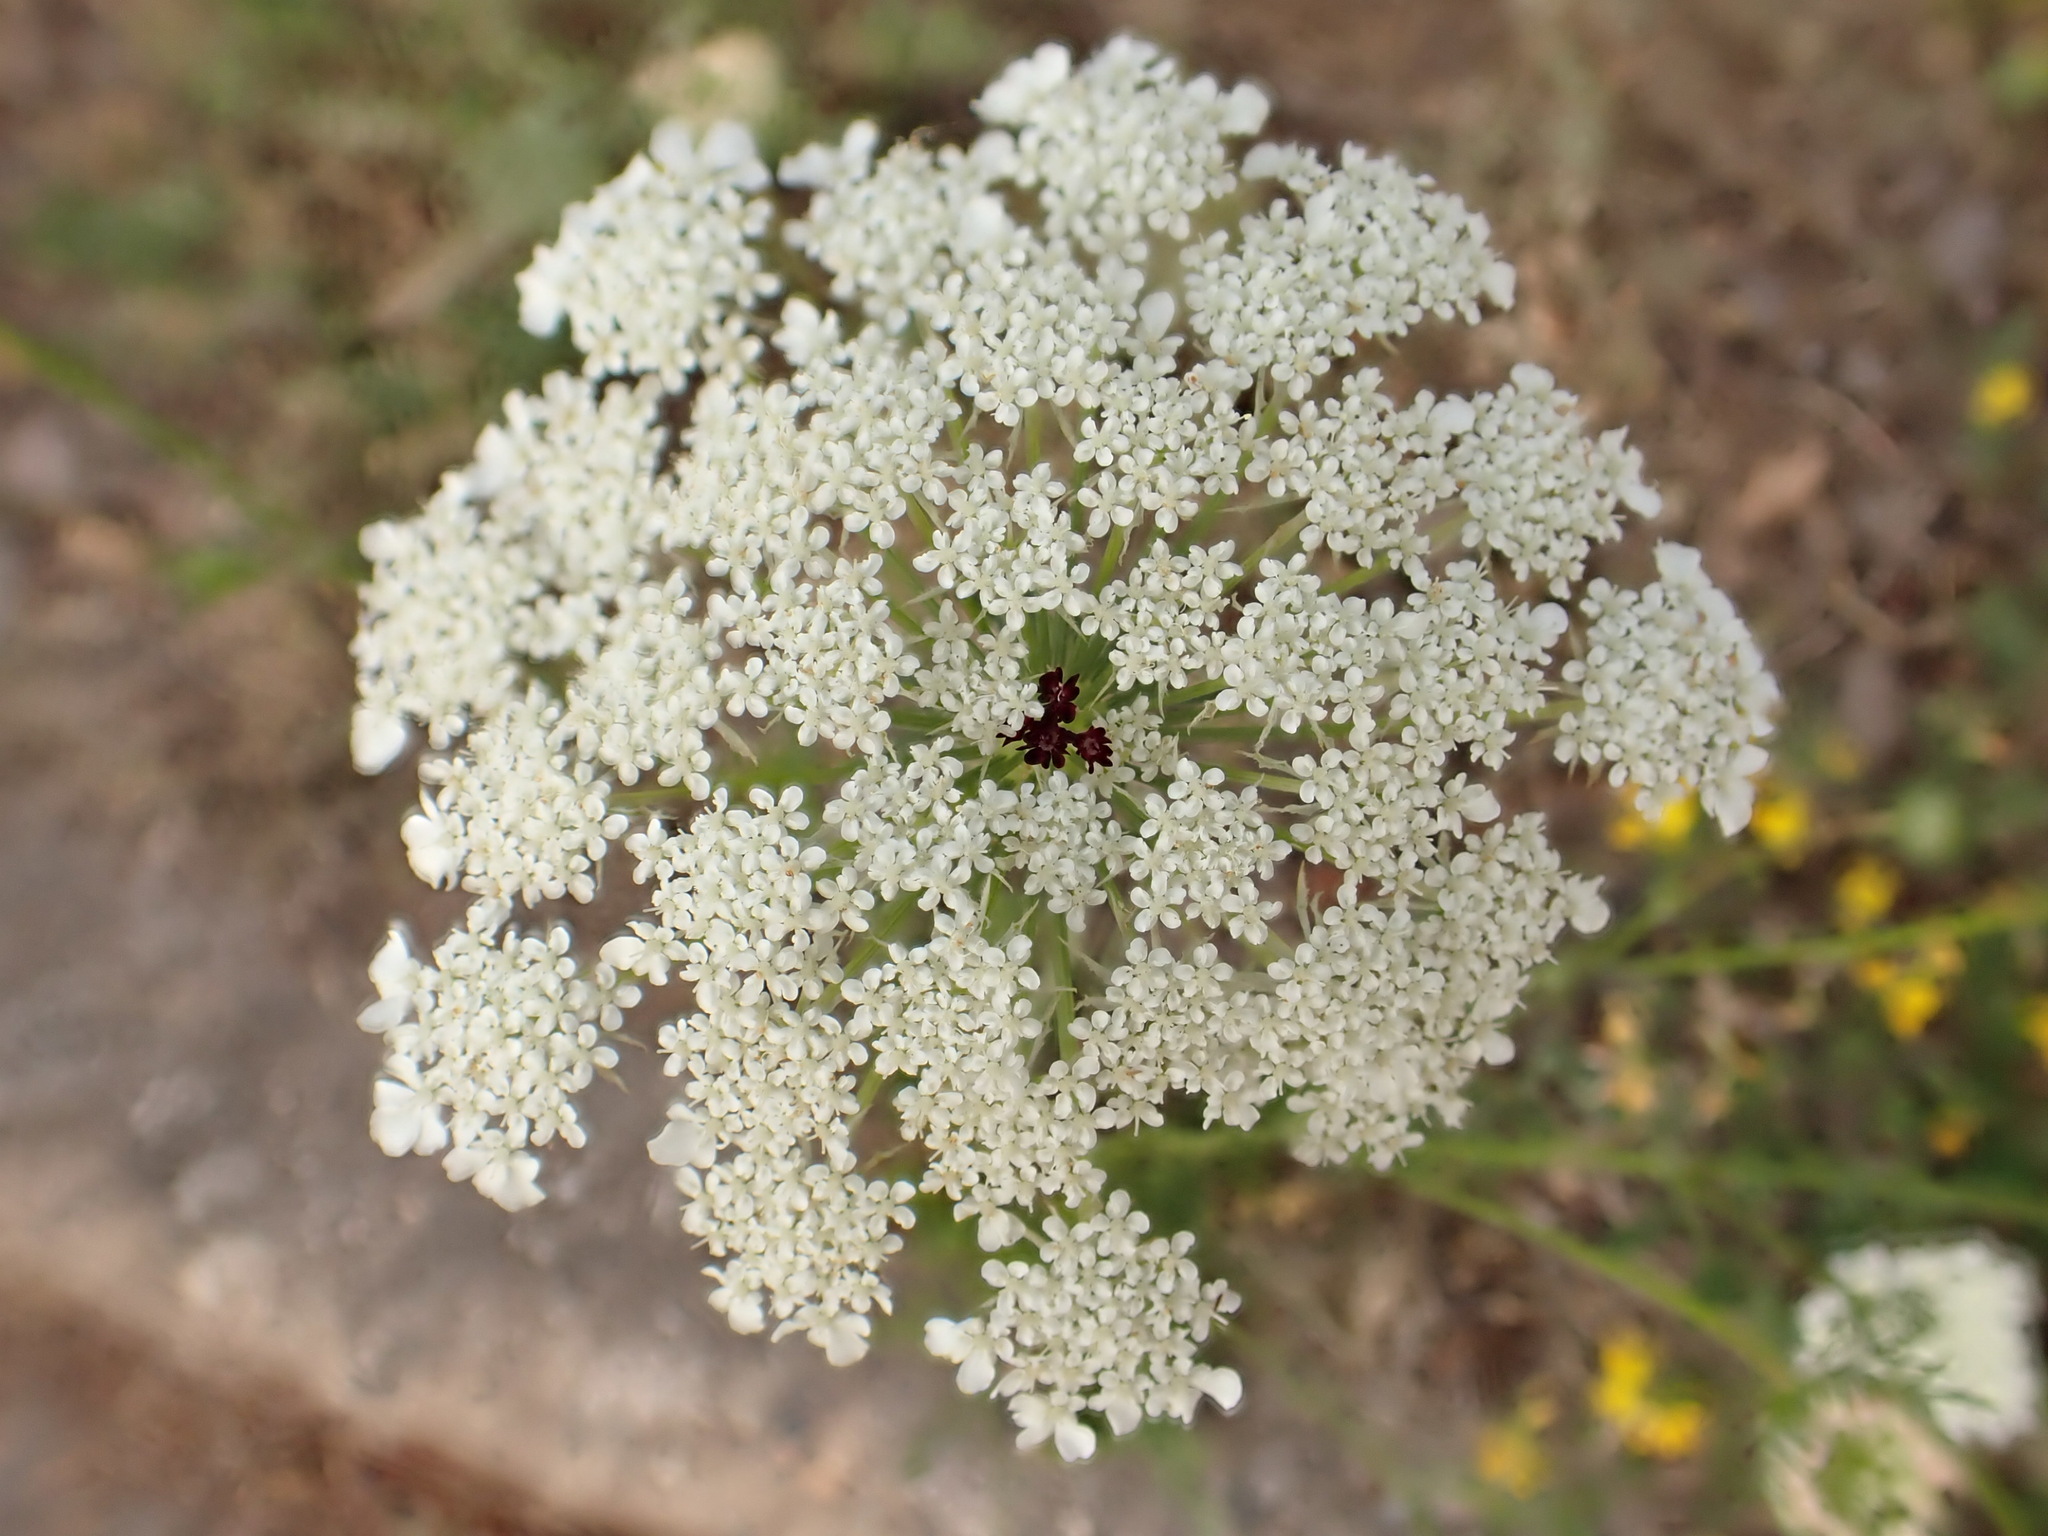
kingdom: Plantae
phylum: Tracheophyta
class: Magnoliopsida
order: Apiales
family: Apiaceae
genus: Daucus
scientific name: Daucus carota
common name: Wild carrot
